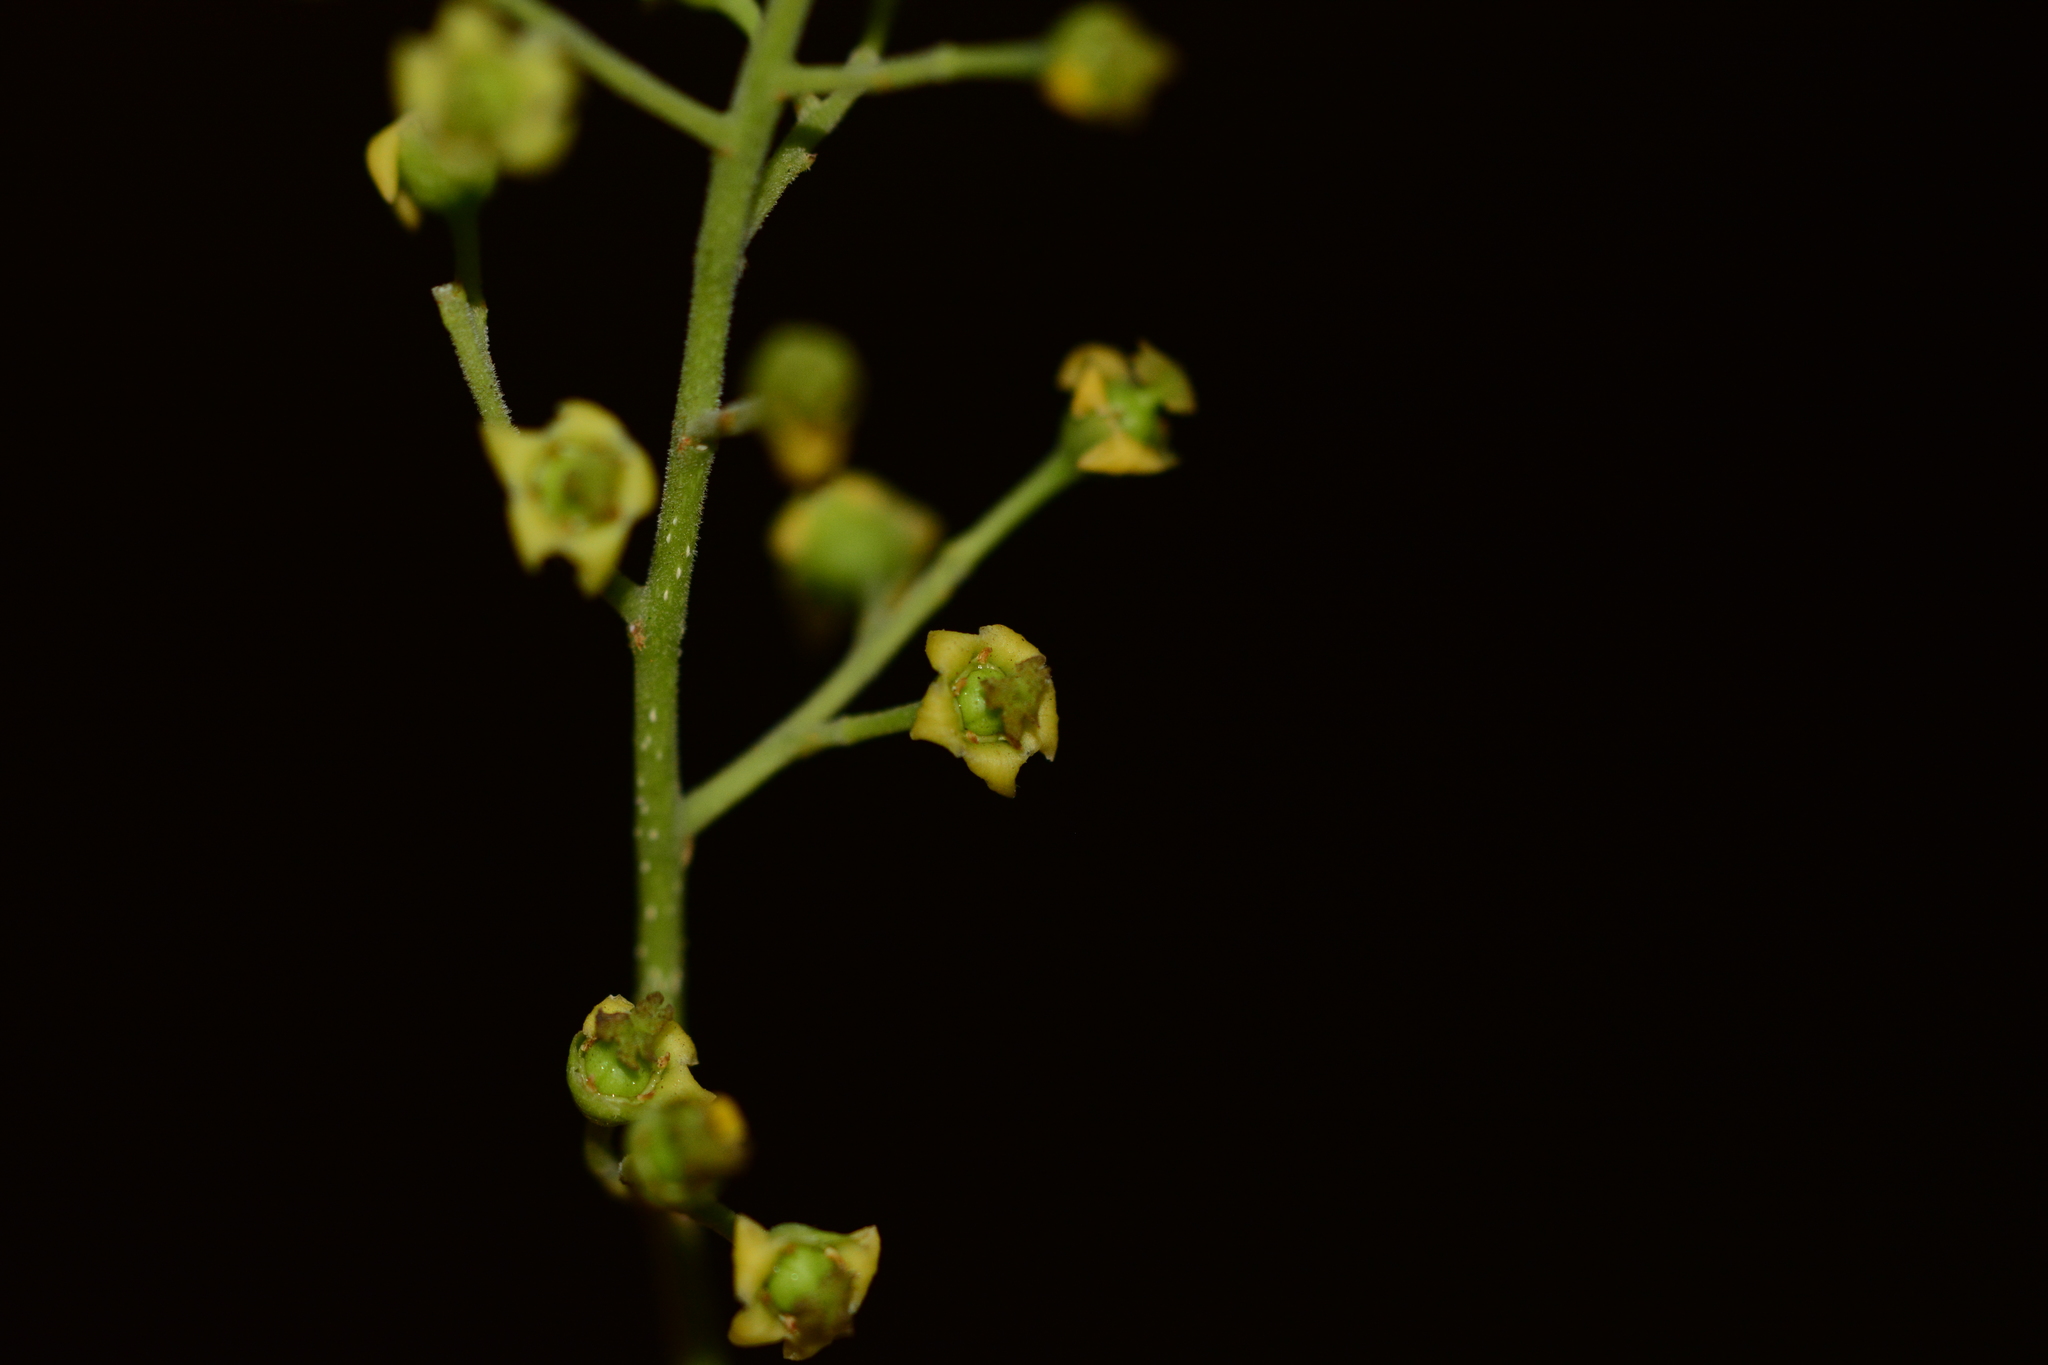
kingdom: Plantae
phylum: Tracheophyta
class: Magnoliopsida
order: Celastrales
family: Celastraceae
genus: Celastrus
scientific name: Celastrus paniculatus
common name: Oriental bittersweet; staff vine
